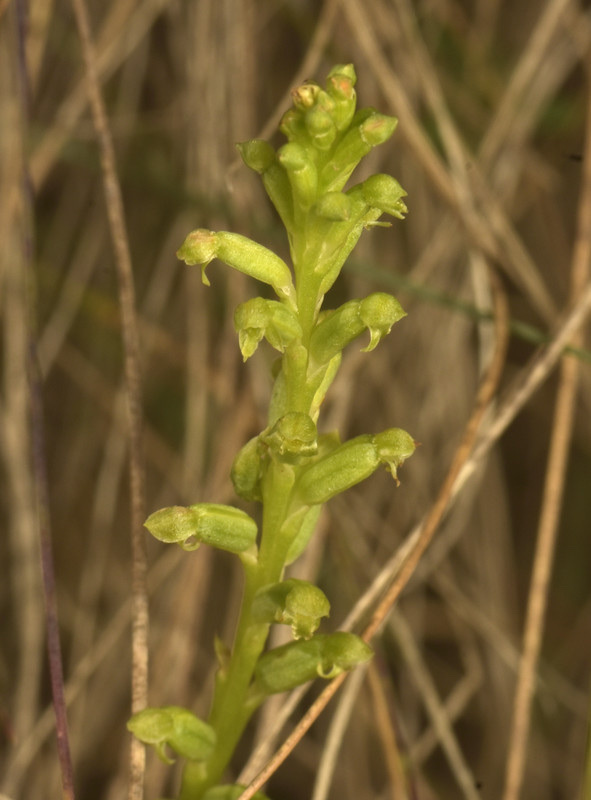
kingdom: Plantae
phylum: Tracheophyta
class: Liliopsida
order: Asparagales
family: Orchidaceae
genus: Microtis
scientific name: Microtis unifolia
